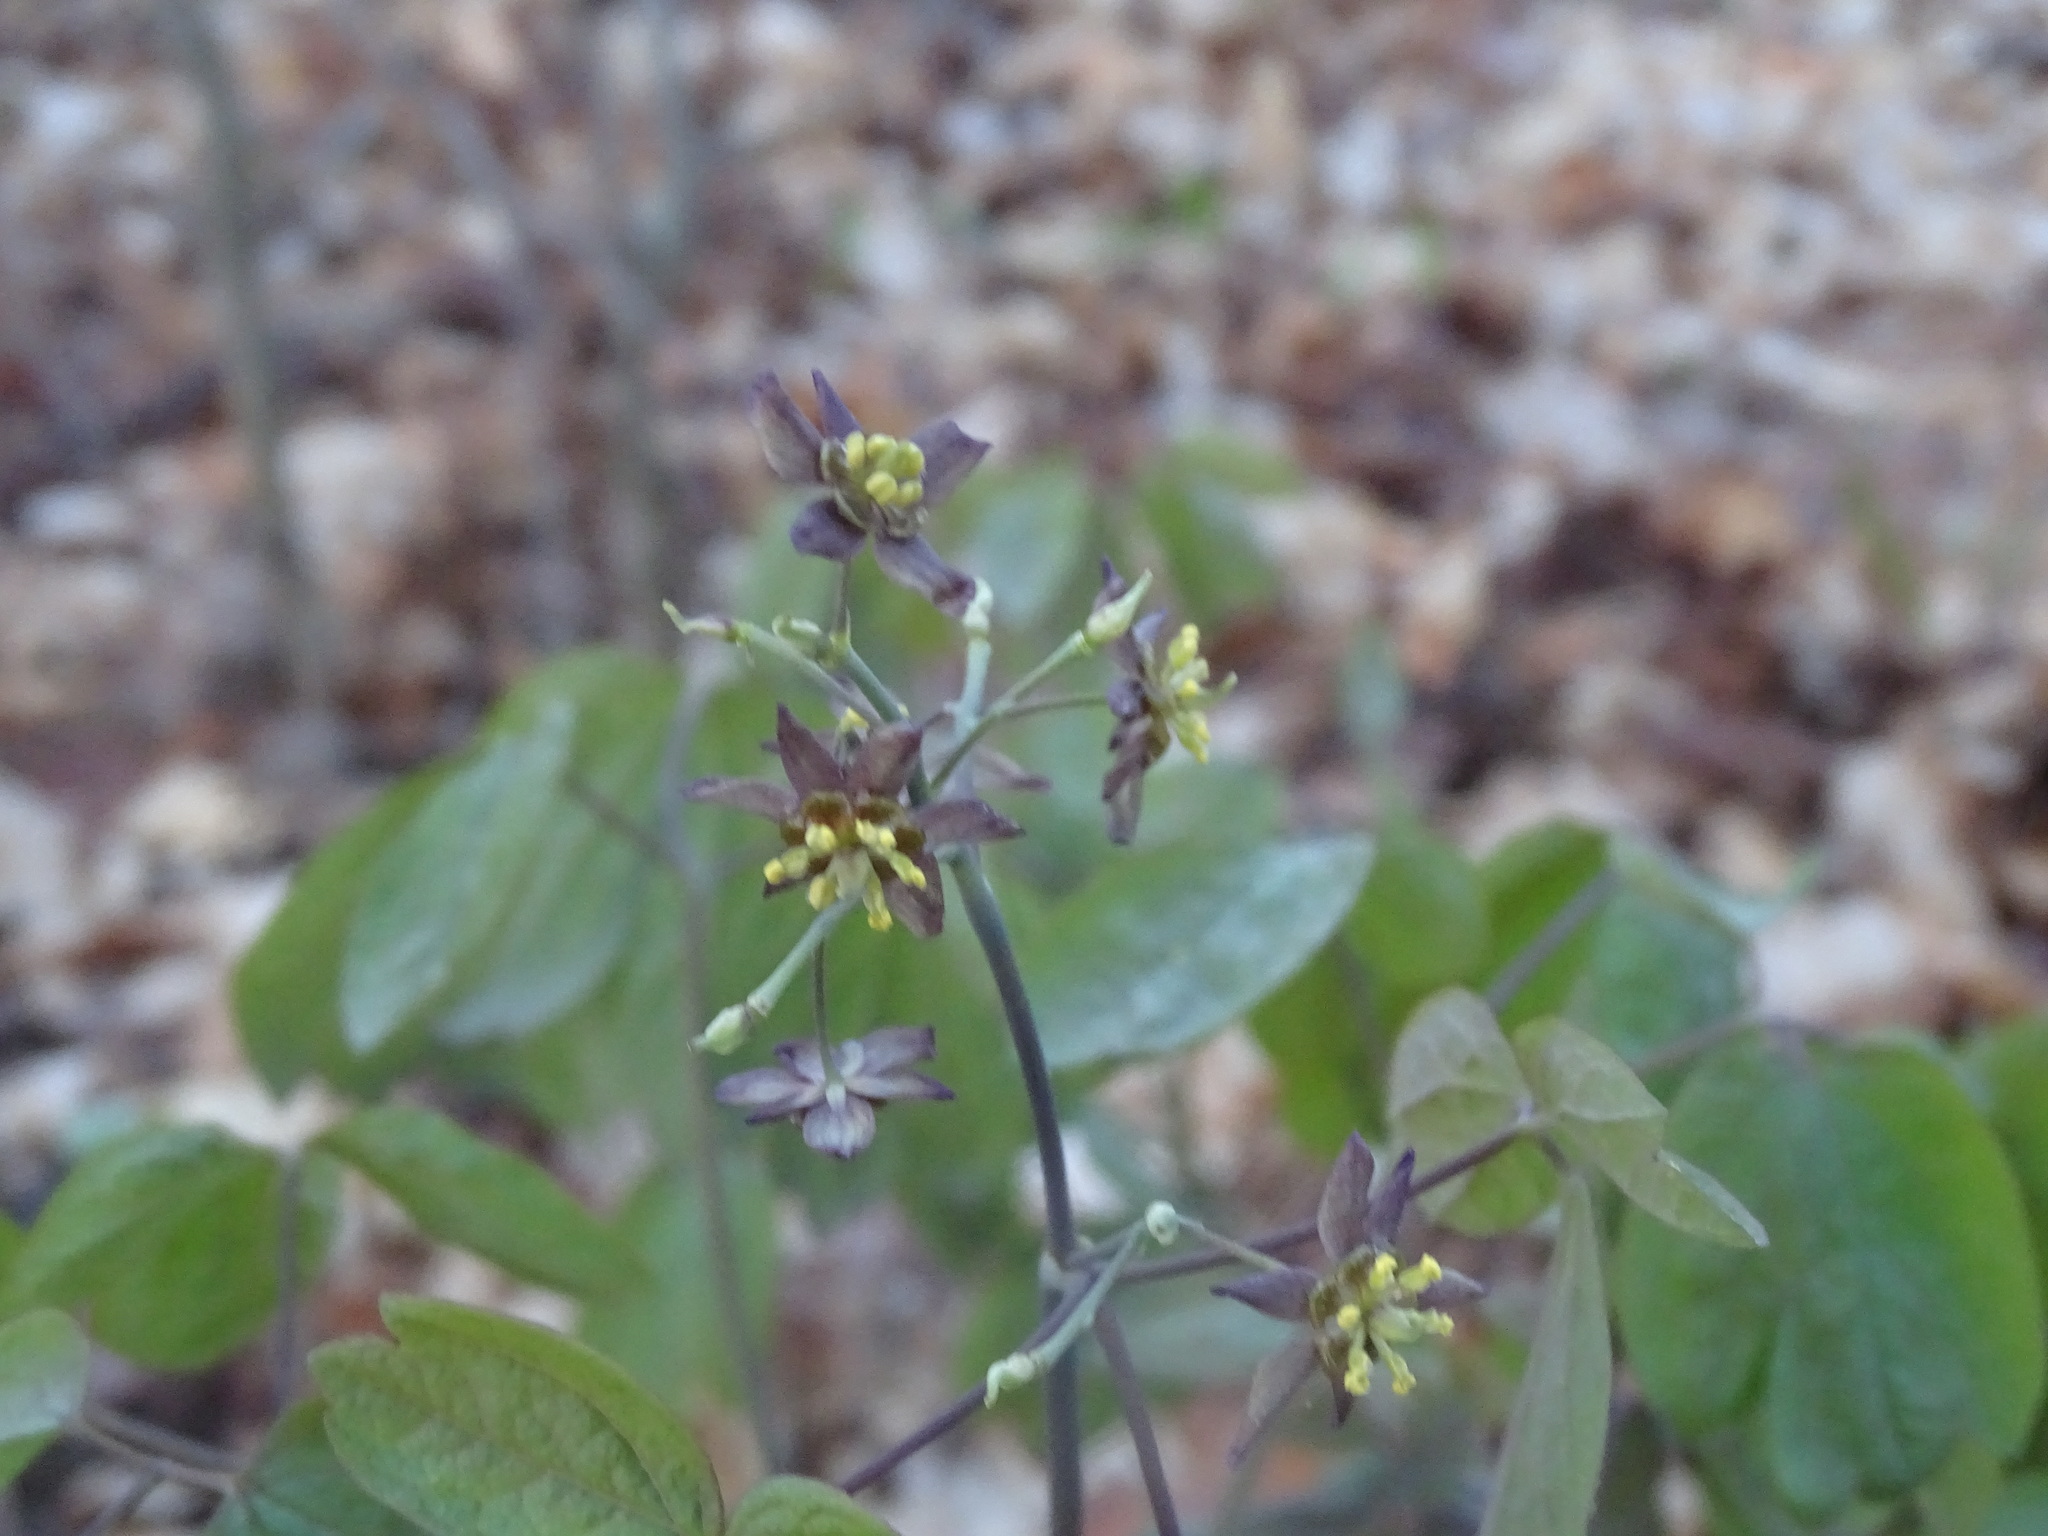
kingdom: Plantae
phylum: Tracheophyta
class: Magnoliopsida
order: Ranunculales
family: Berberidaceae
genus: Caulophyllum
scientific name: Caulophyllum giganteum
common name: Blue cohosh
